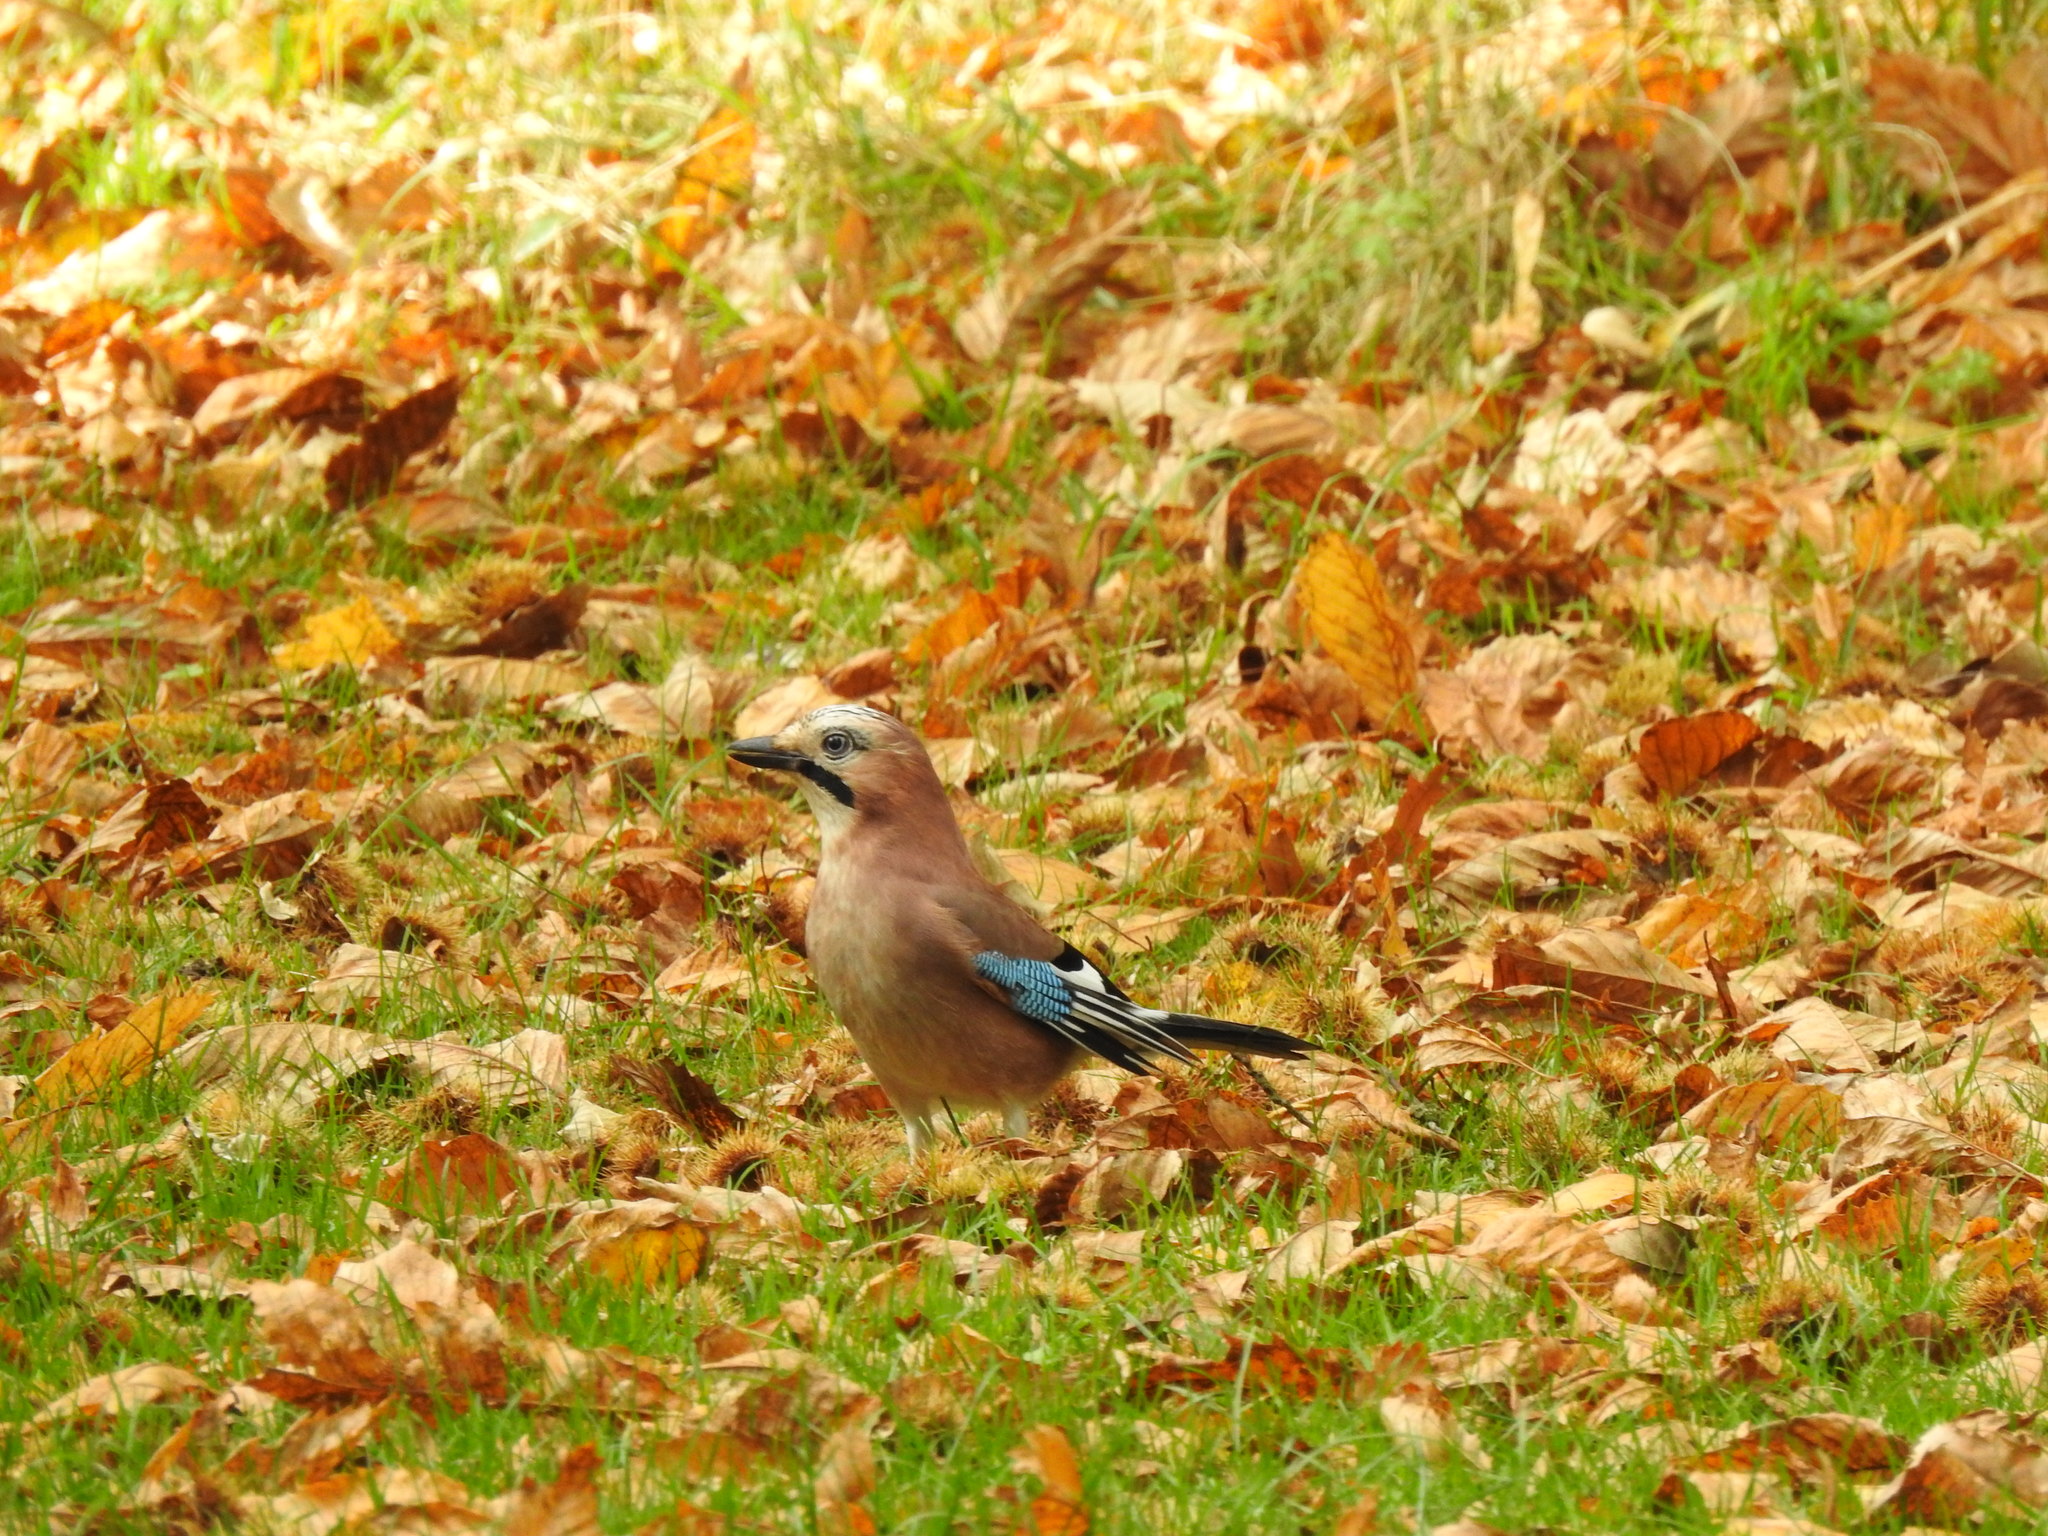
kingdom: Animalia
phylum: Chordata
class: Aves
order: Passeriformes
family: Corvidae
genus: Garrulus
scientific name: Garrulus glandarius
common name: Eurasian jay
